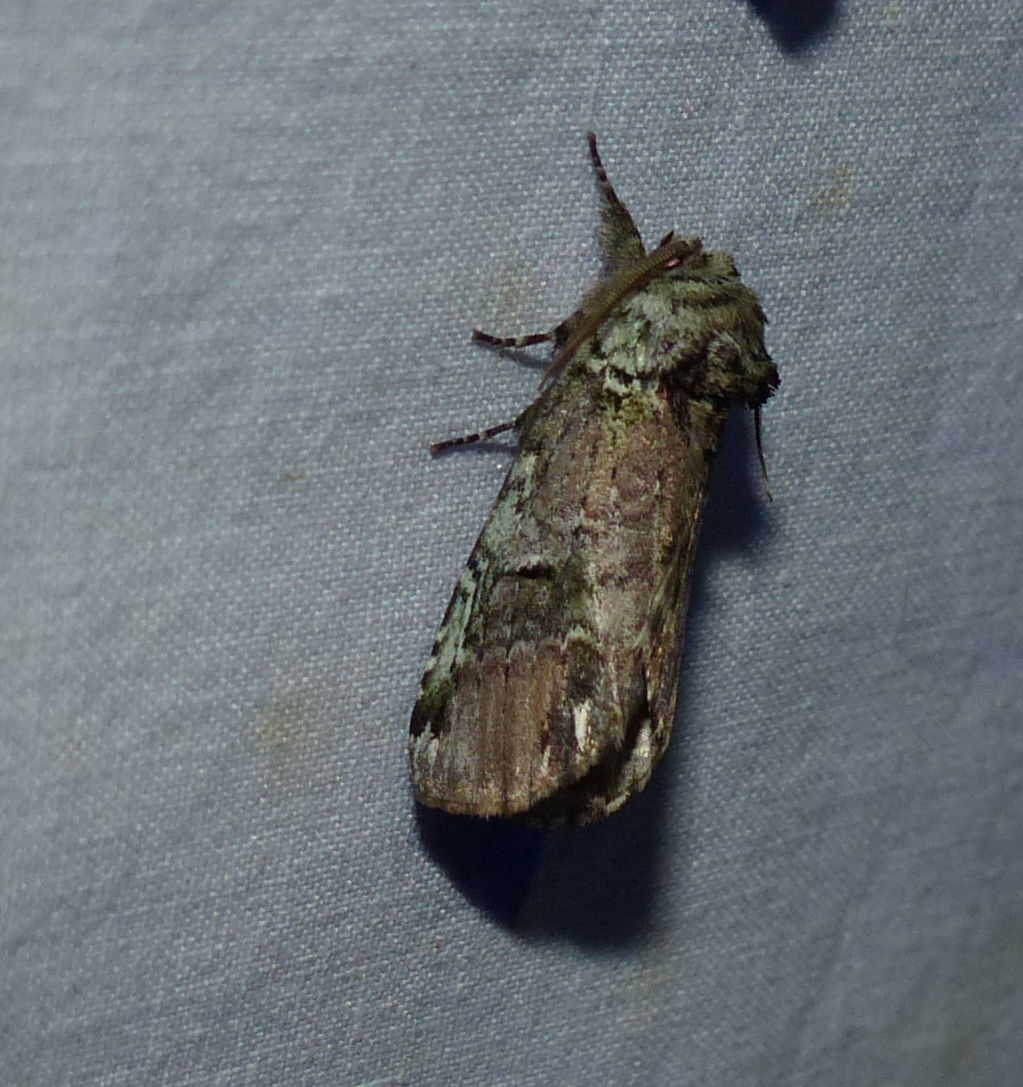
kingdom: Animalia
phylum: Arthropoda
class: Insecta
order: Lepidoptera
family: Notodontidae
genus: Schizura
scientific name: Schizura
